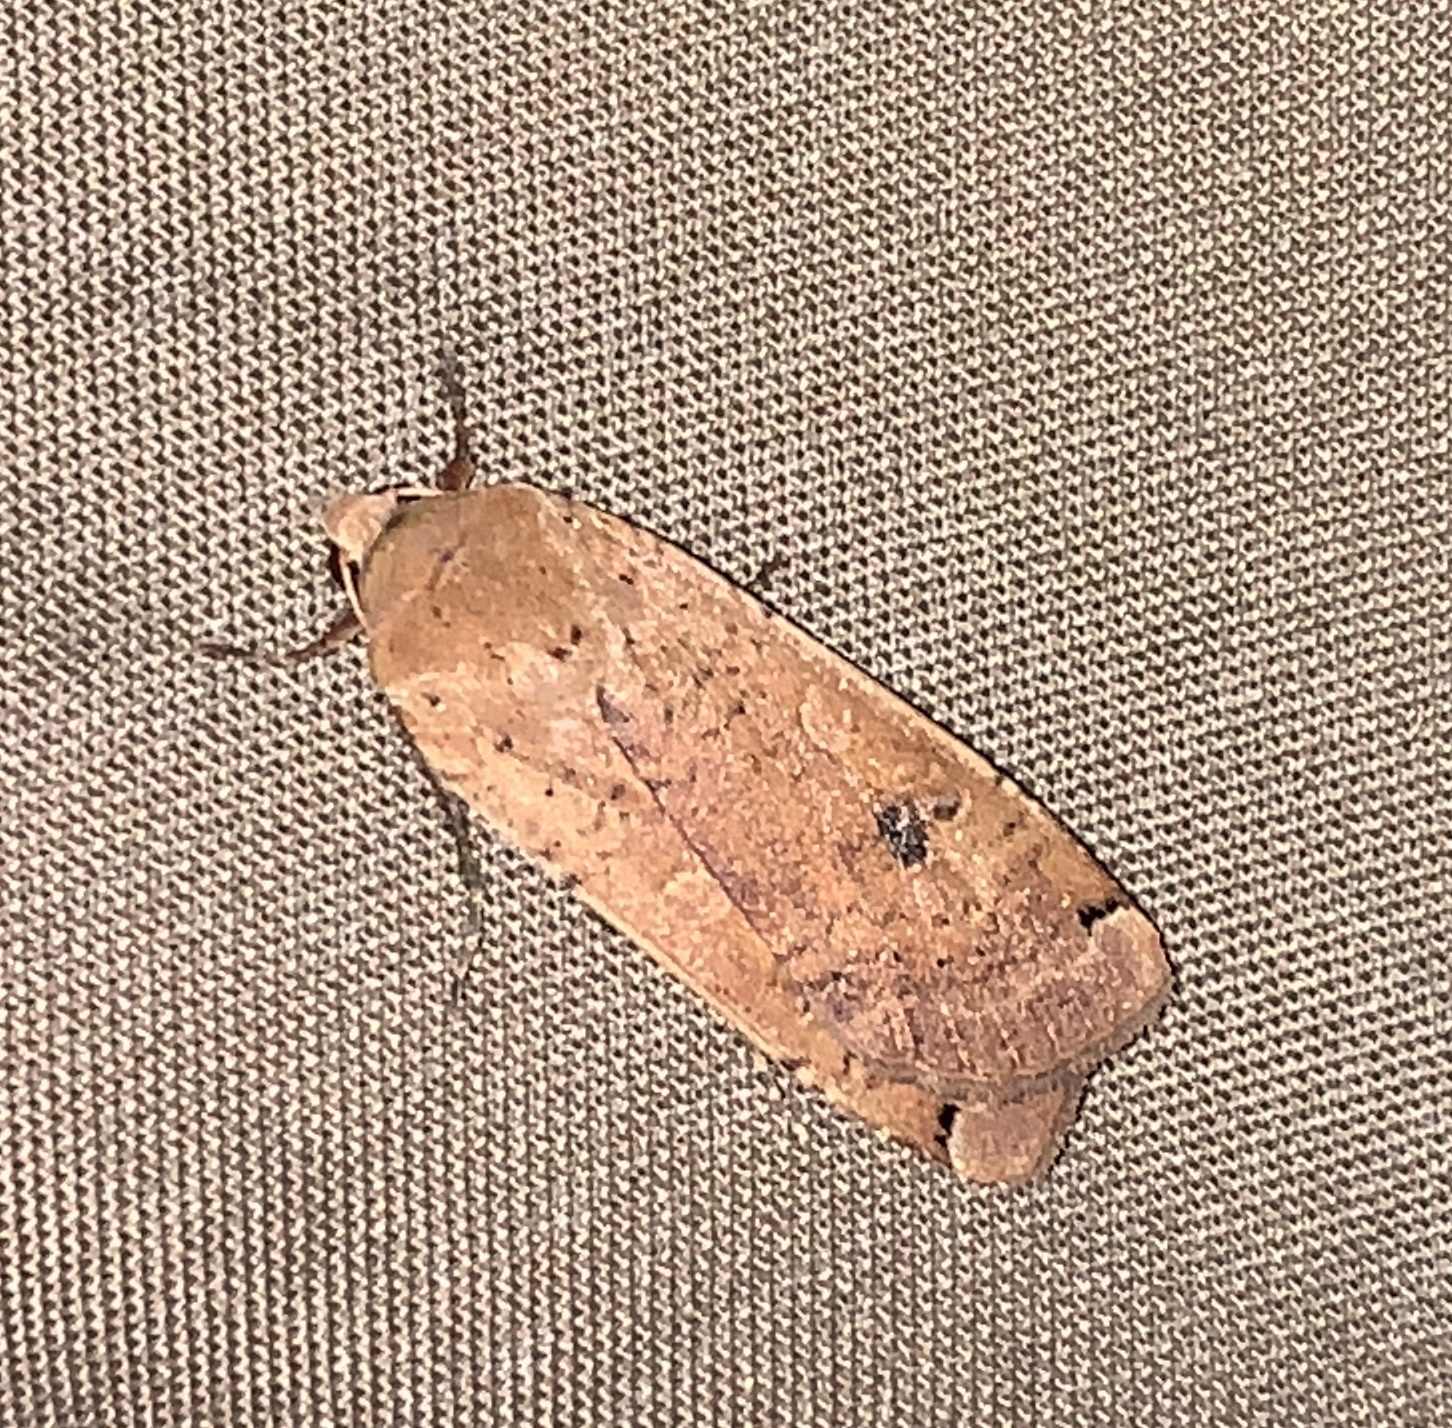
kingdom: Animalia
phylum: Arthropoda
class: Insecta
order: Lepidoptera
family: Noctuidae
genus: Noctua
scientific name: Noctua pronuba
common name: Large yellow underwing
